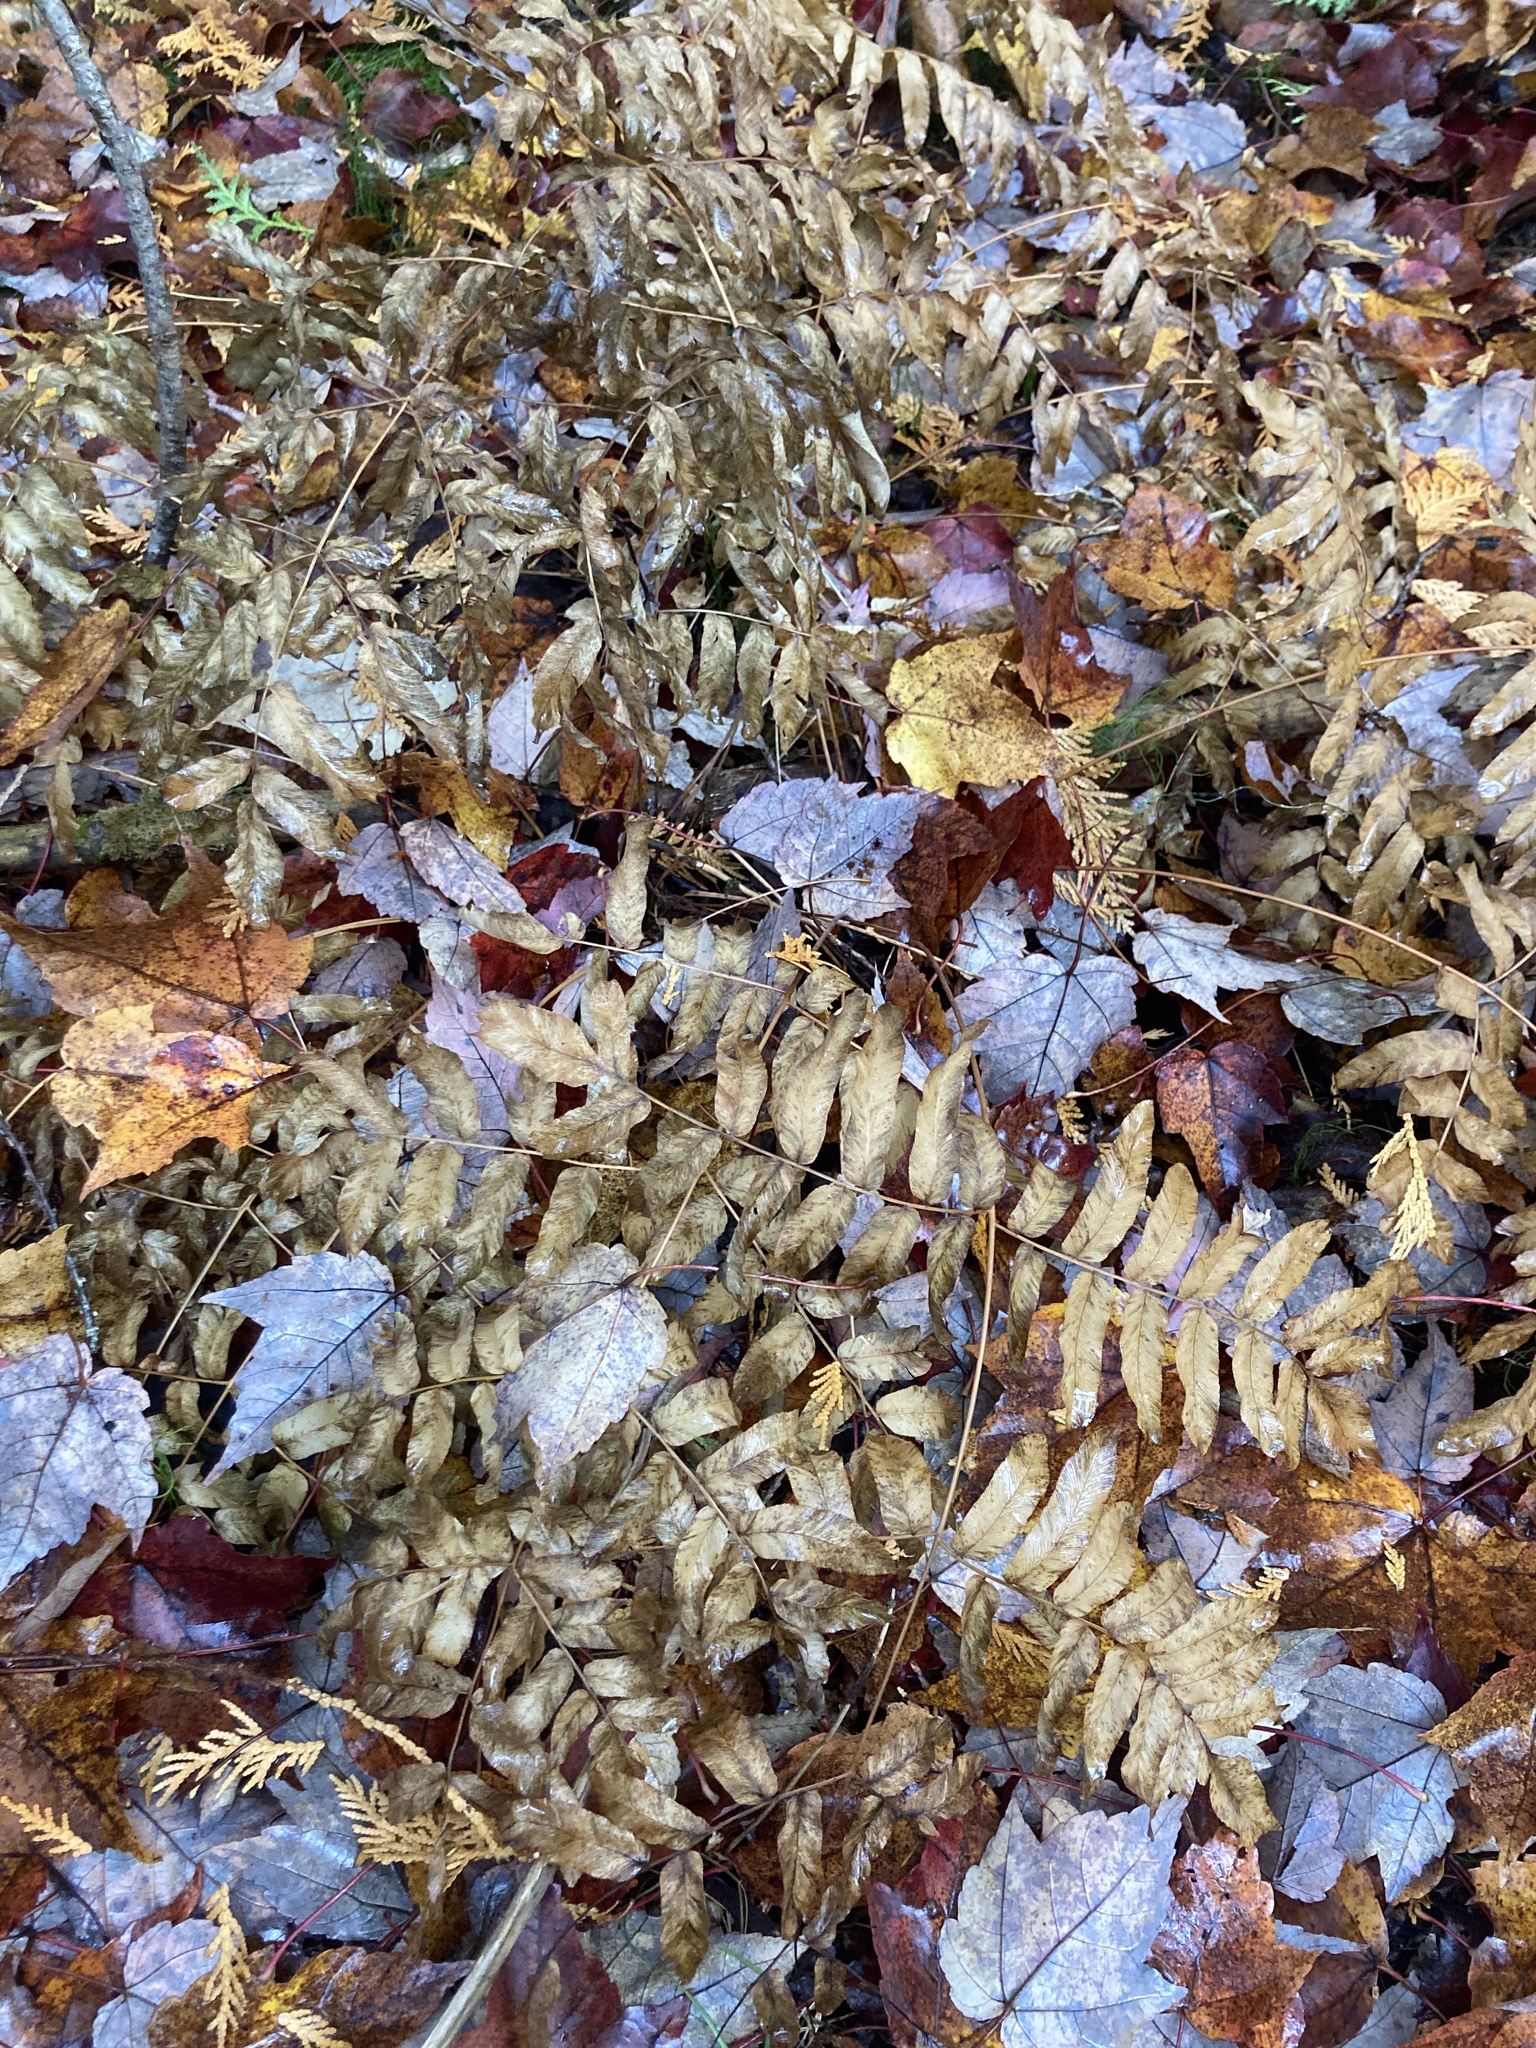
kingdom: Plantae
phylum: Tracheophyta
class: Polypodiopsida
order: Osmundales
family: Osmundaceae
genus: Osmunda
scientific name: Osmunda spectabilis
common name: American royal fern
